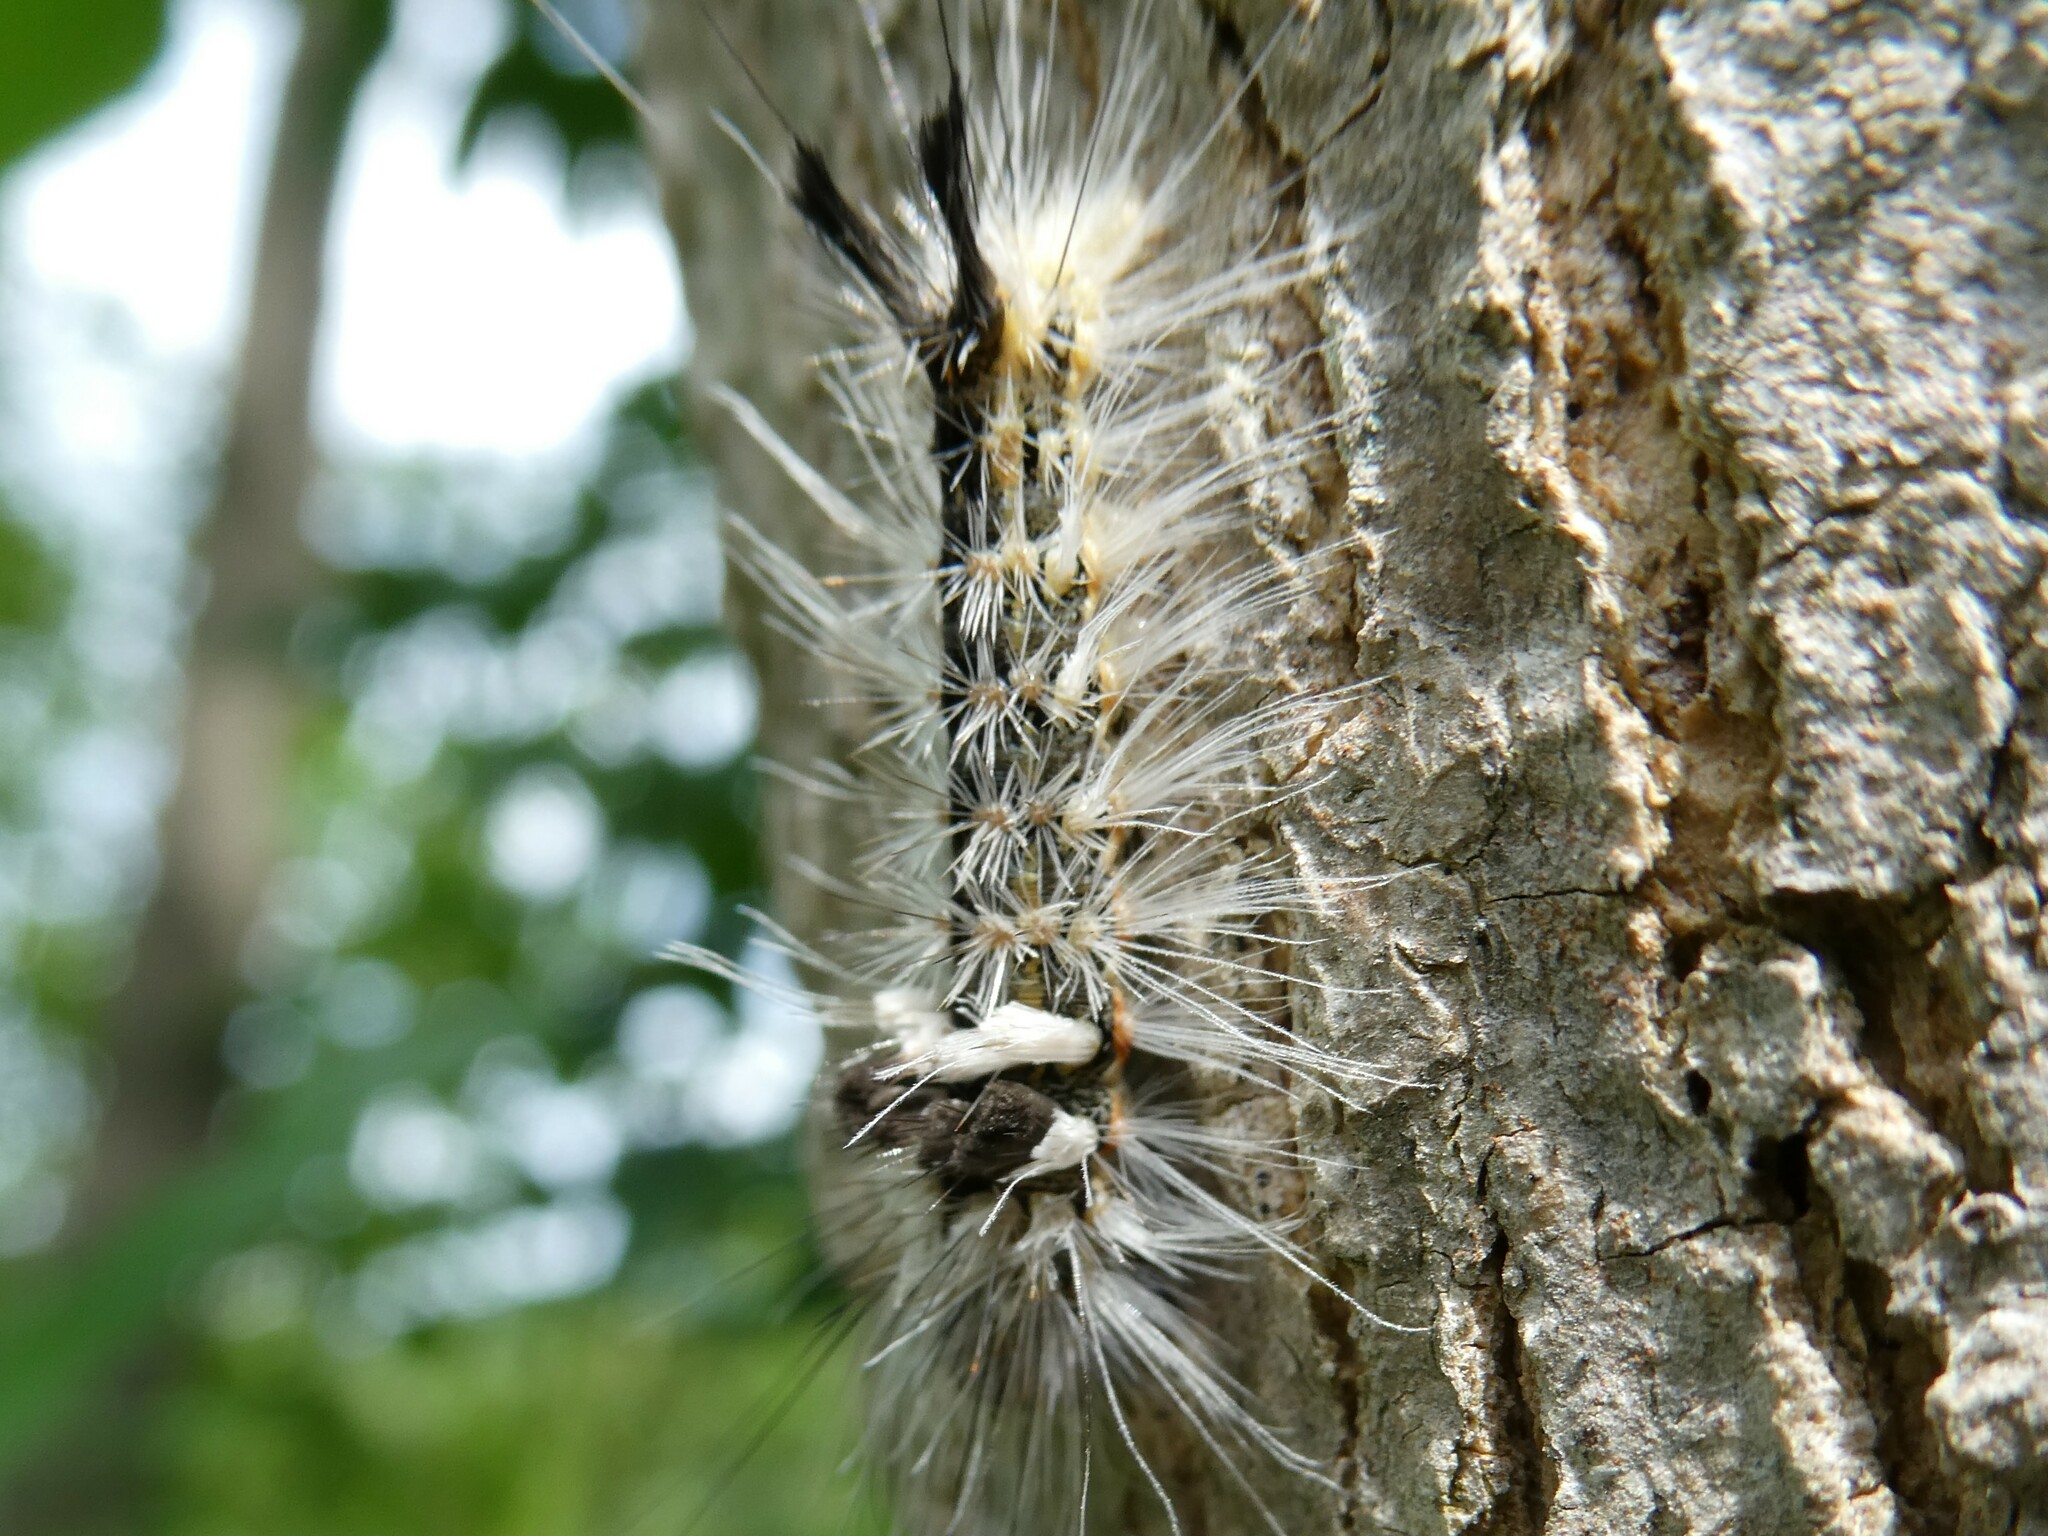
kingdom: Animalia
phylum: Arthropoda
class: Insecta
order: Lepidoptera
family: Noctuidae
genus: Acronicta
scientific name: Acronicta impleta
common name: Powdered dagger
